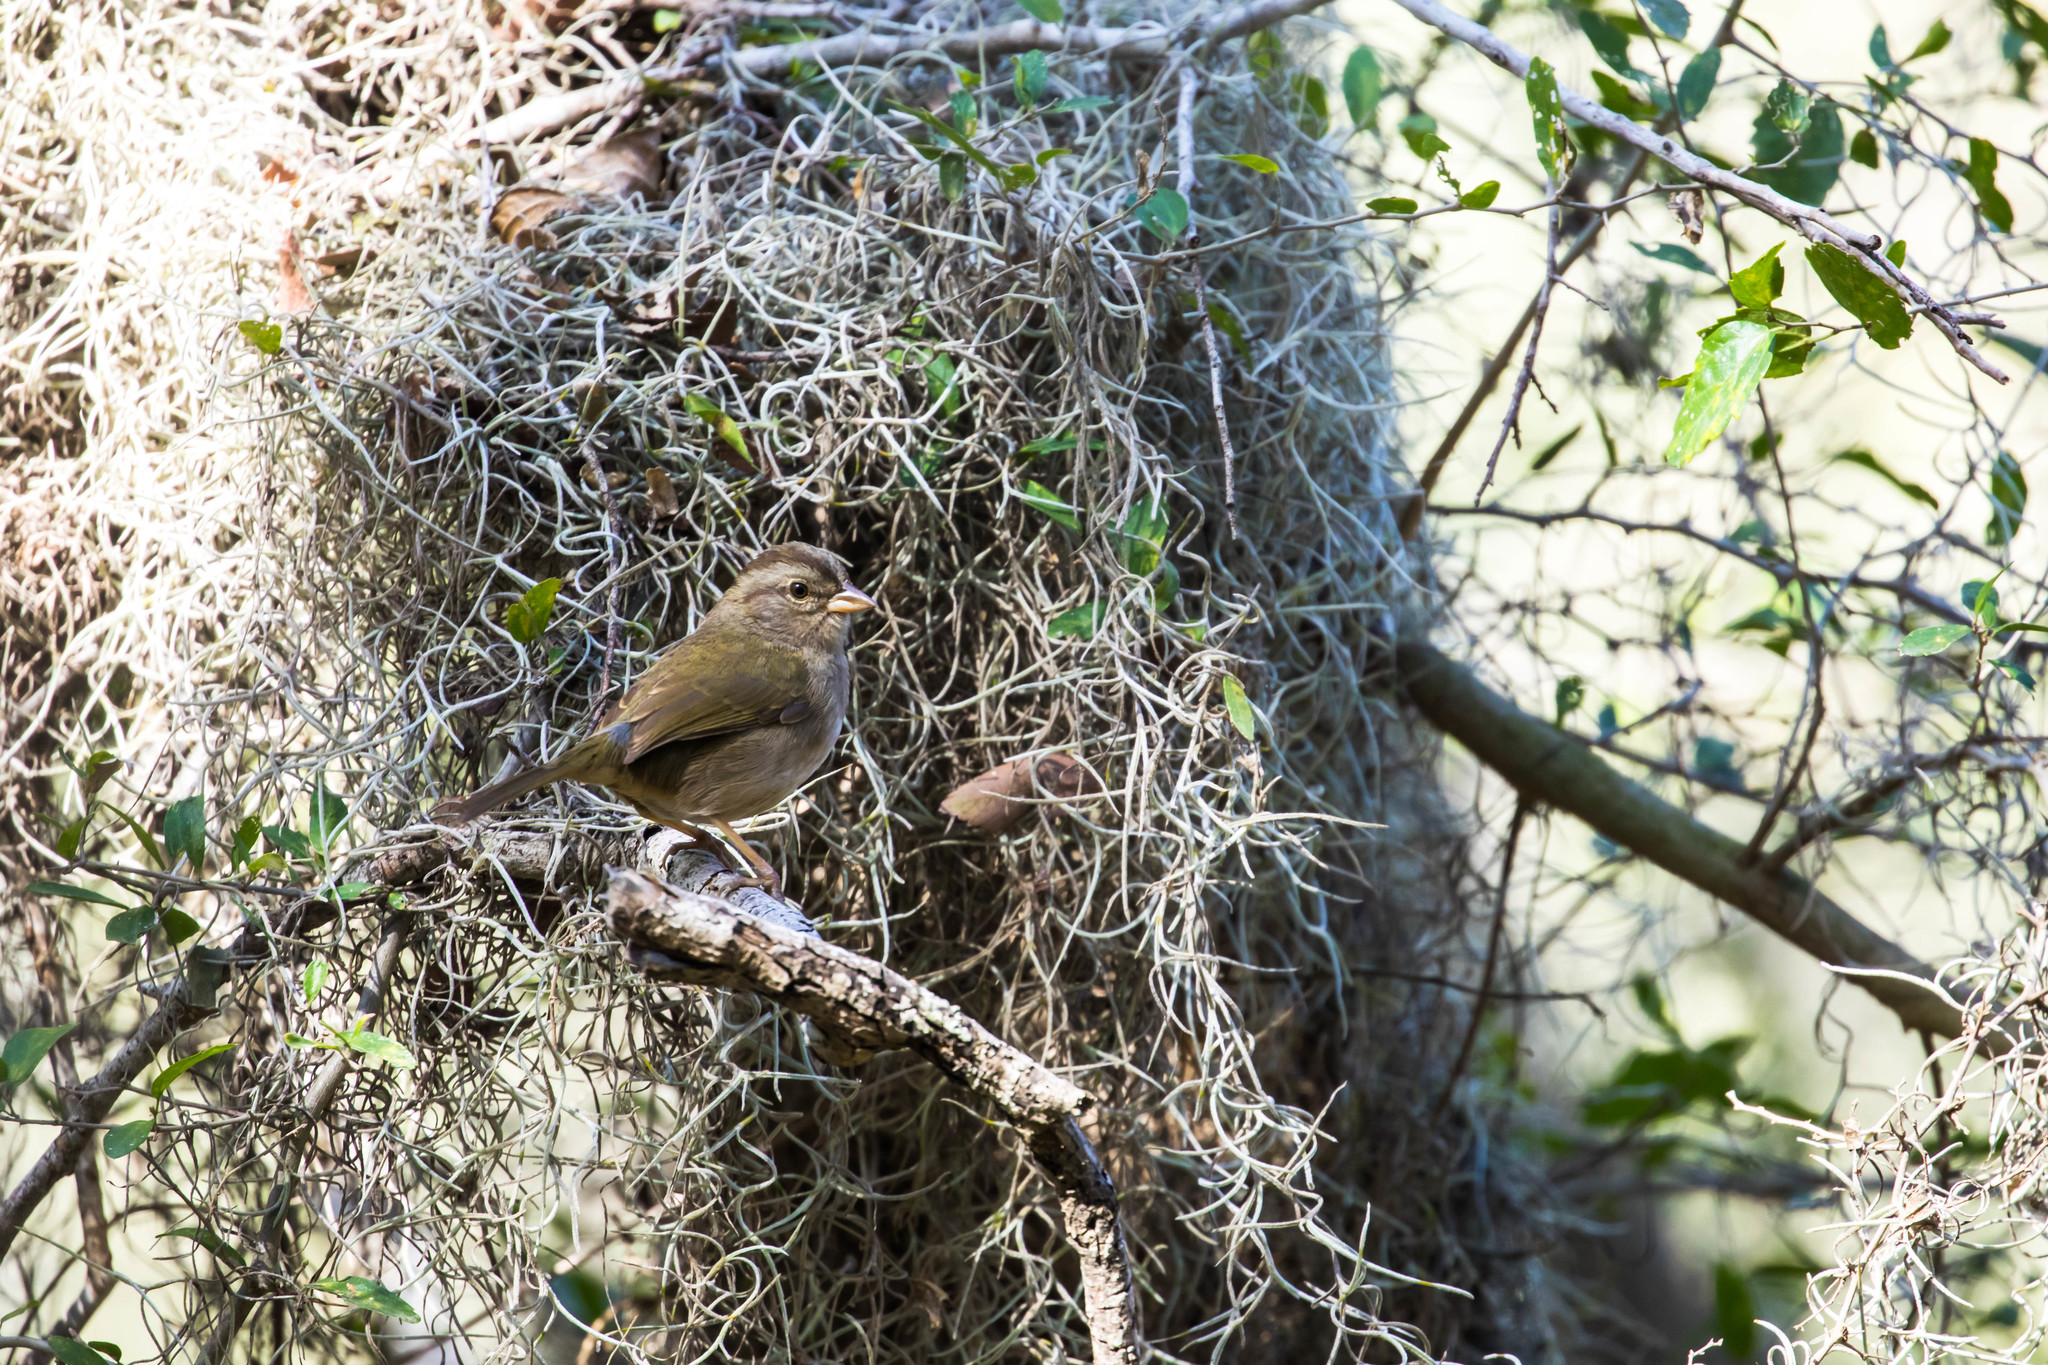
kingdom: Animalia
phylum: Chordata
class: Aves
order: Passeriformes
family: Passerellidae
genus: Arremonops
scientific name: Arremonops rufivirgatus
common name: Olive sparrow
